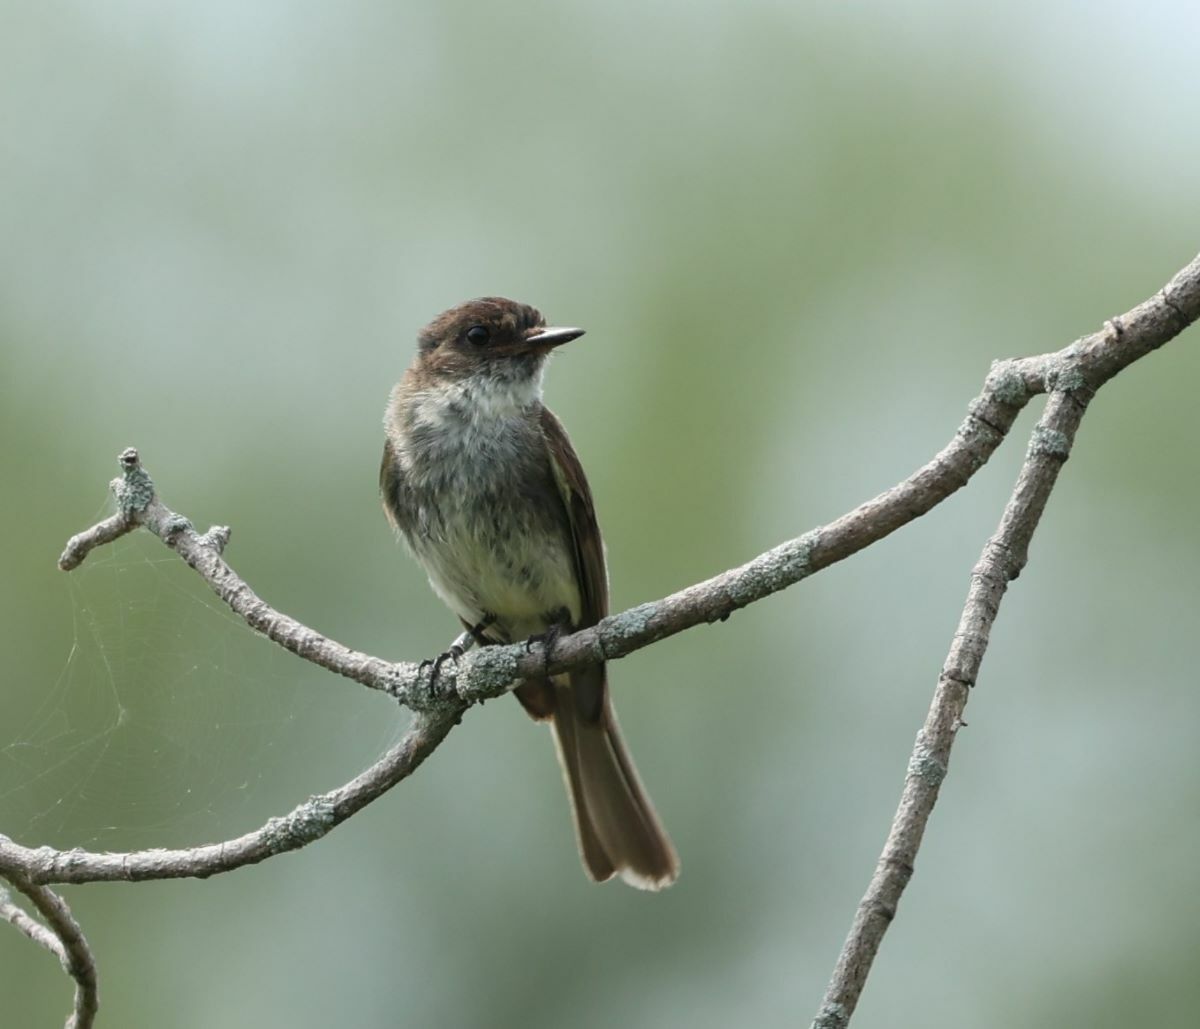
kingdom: Animalia
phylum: Chordata
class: Aves
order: Passeriformes
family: Tyrannidae
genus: Sayornis
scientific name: Sayornis phoebe
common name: Eastern phoebe
